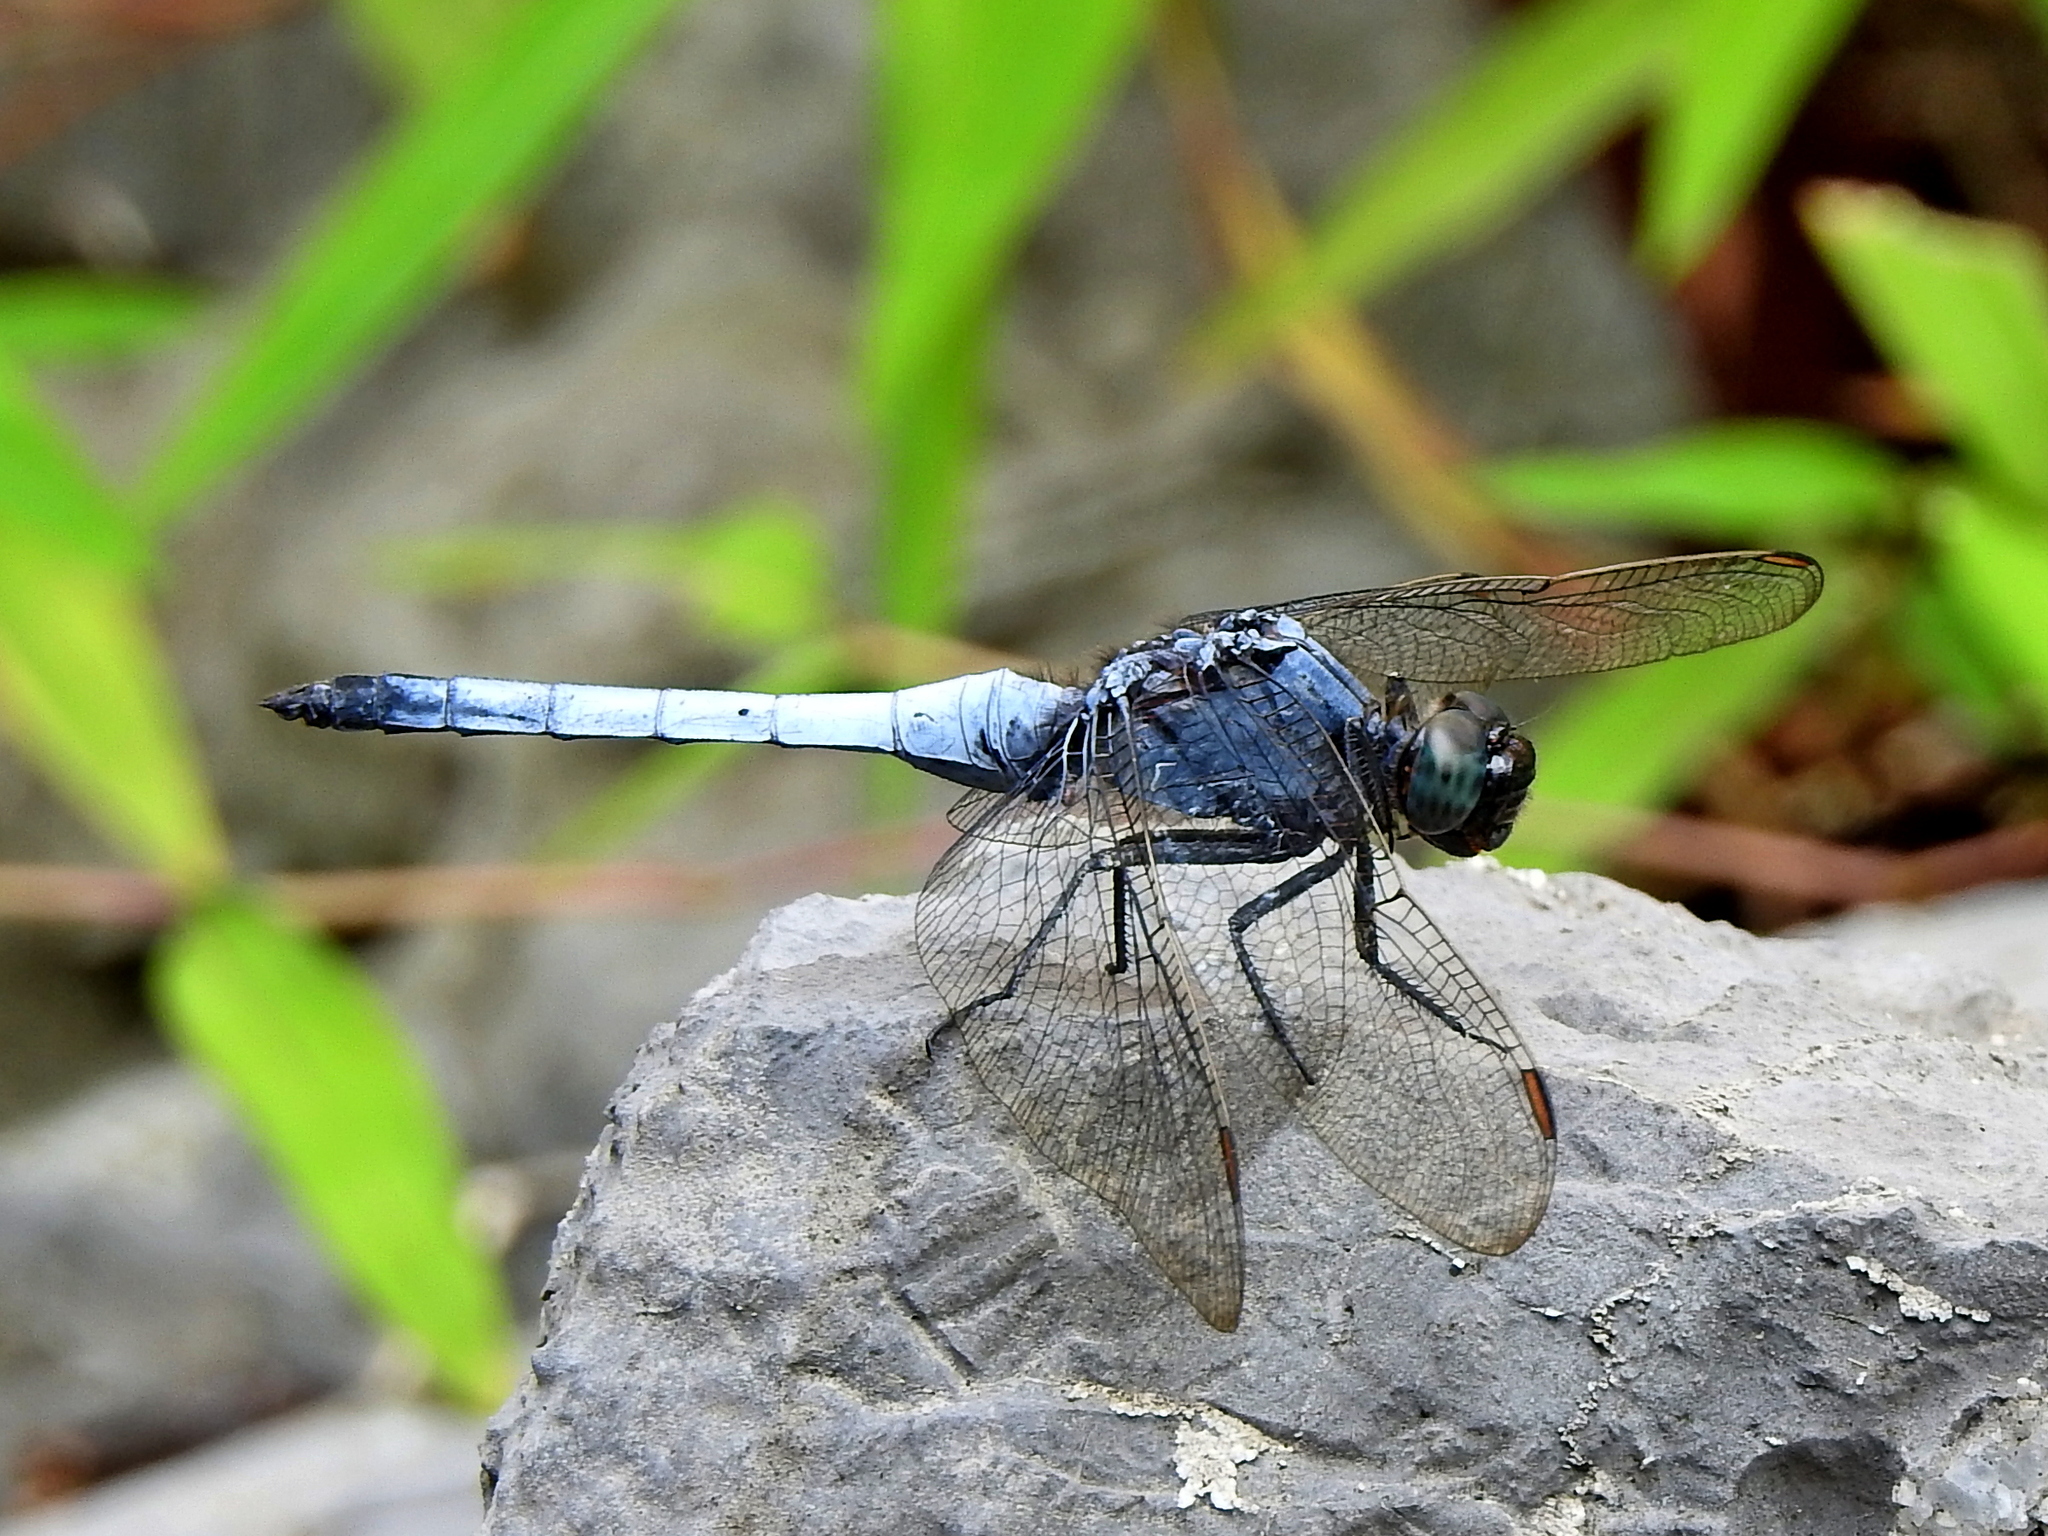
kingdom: Animalia
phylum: Arthropoda
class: Insecta
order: Odonata
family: Libellulidae
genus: Orthetrum
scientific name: Orthetrum glaucum
